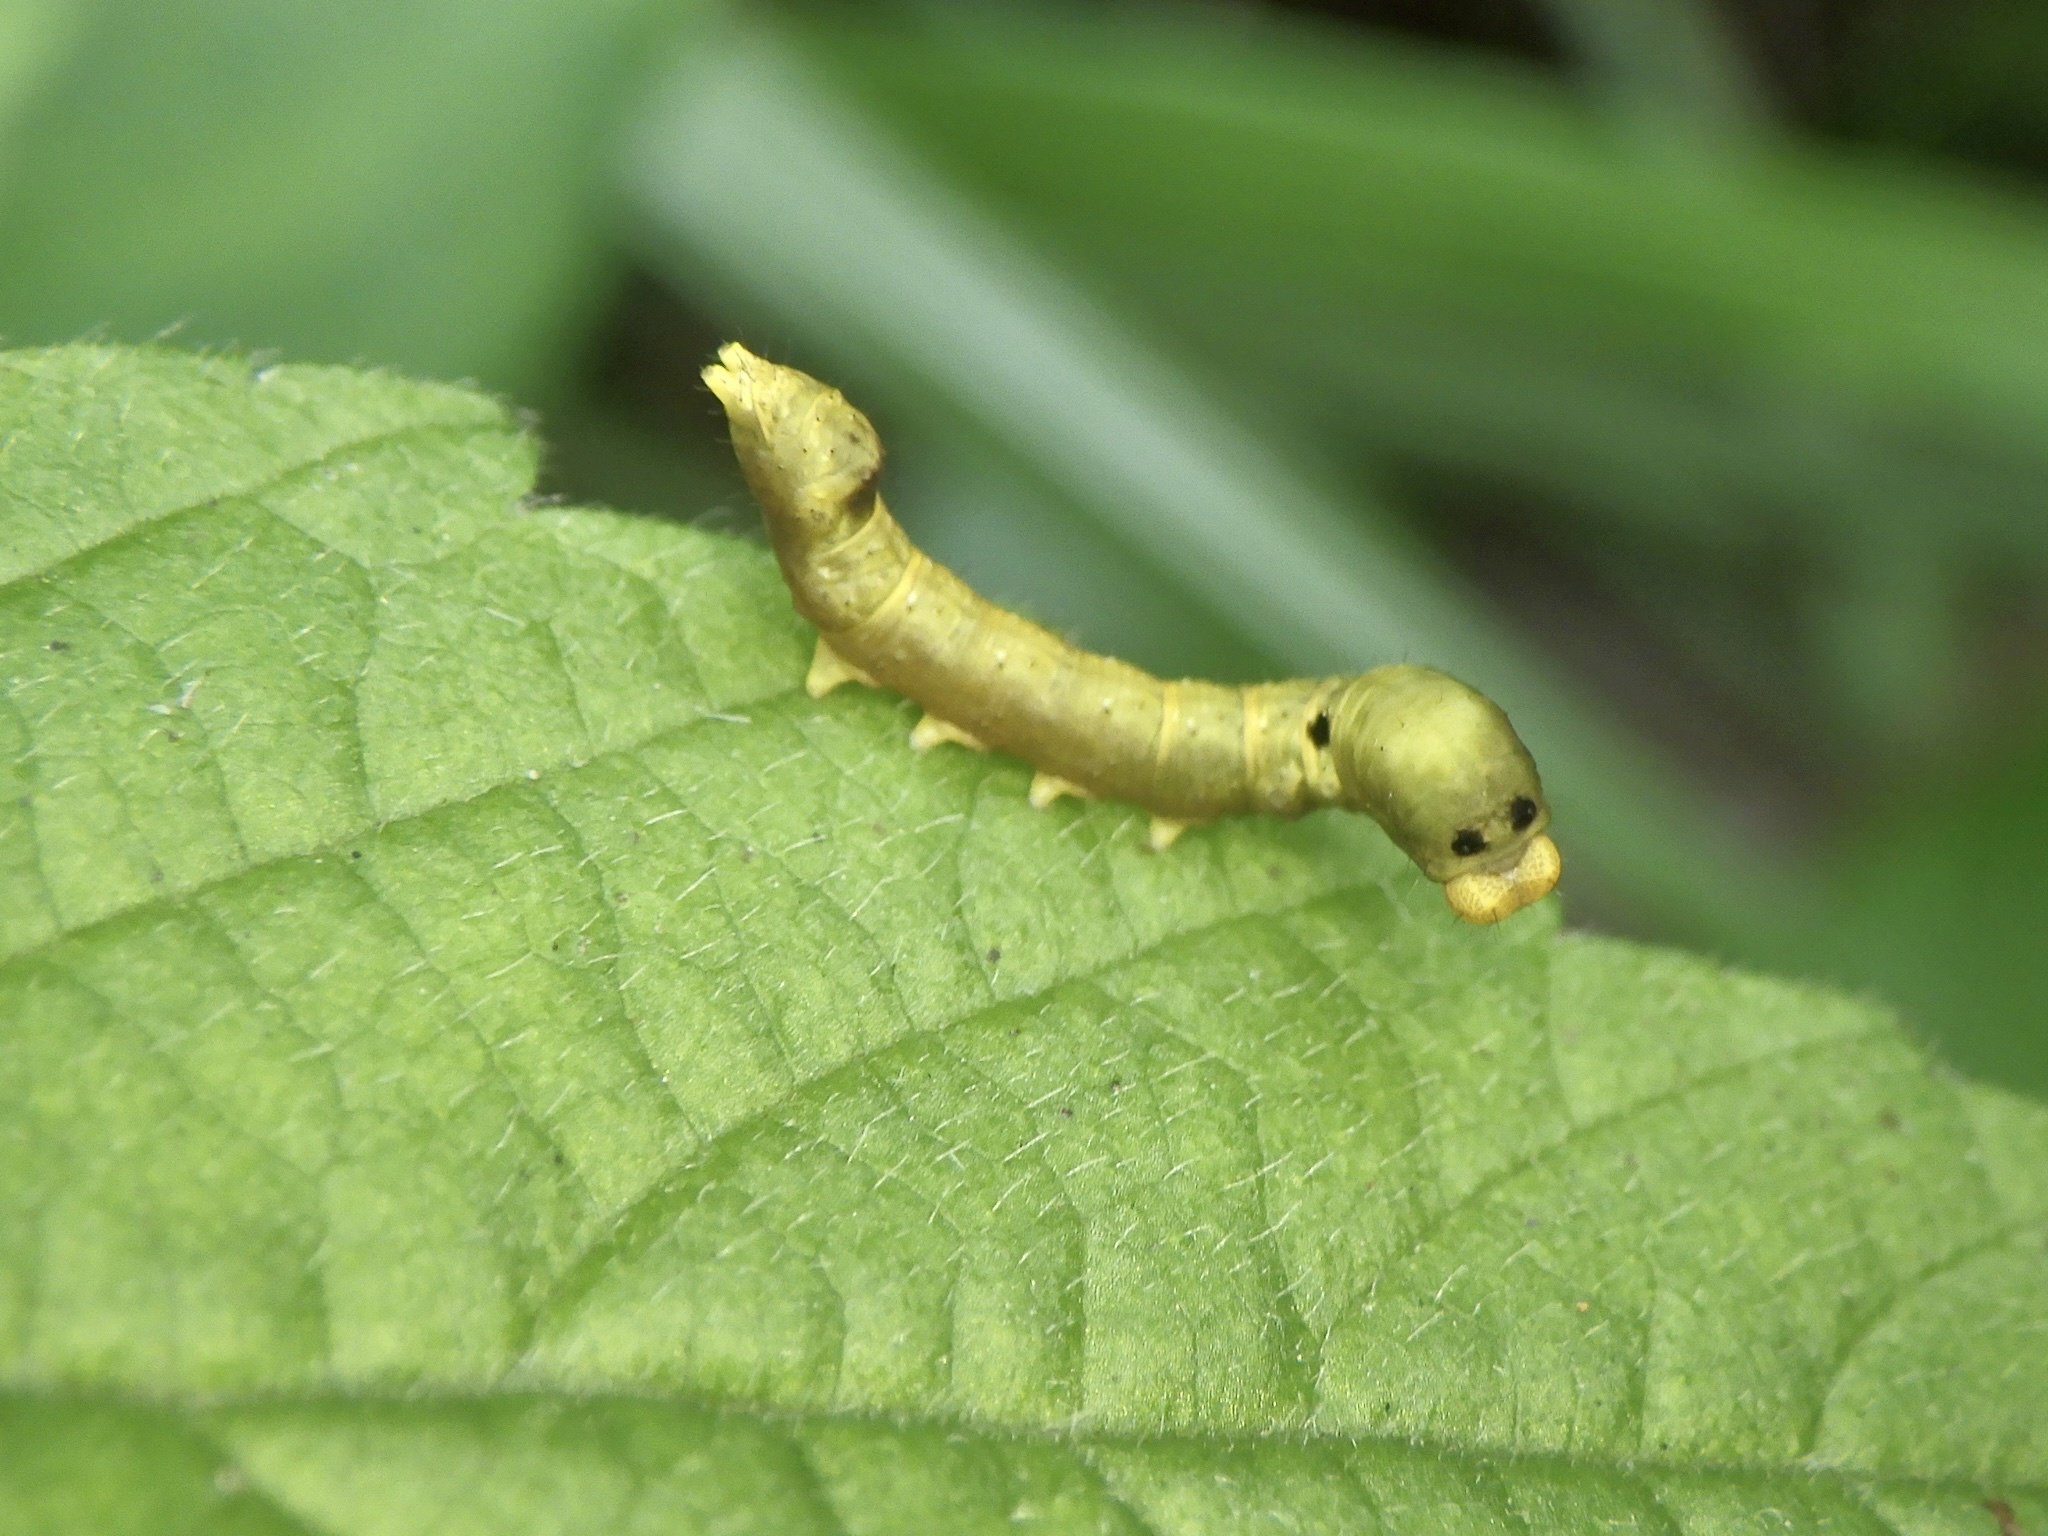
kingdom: Animalia
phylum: Arthropoda
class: Insecta
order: Lepidoptera
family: Drepanidae
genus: Thyatira
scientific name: Thyatira batis
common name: Peach blossom
